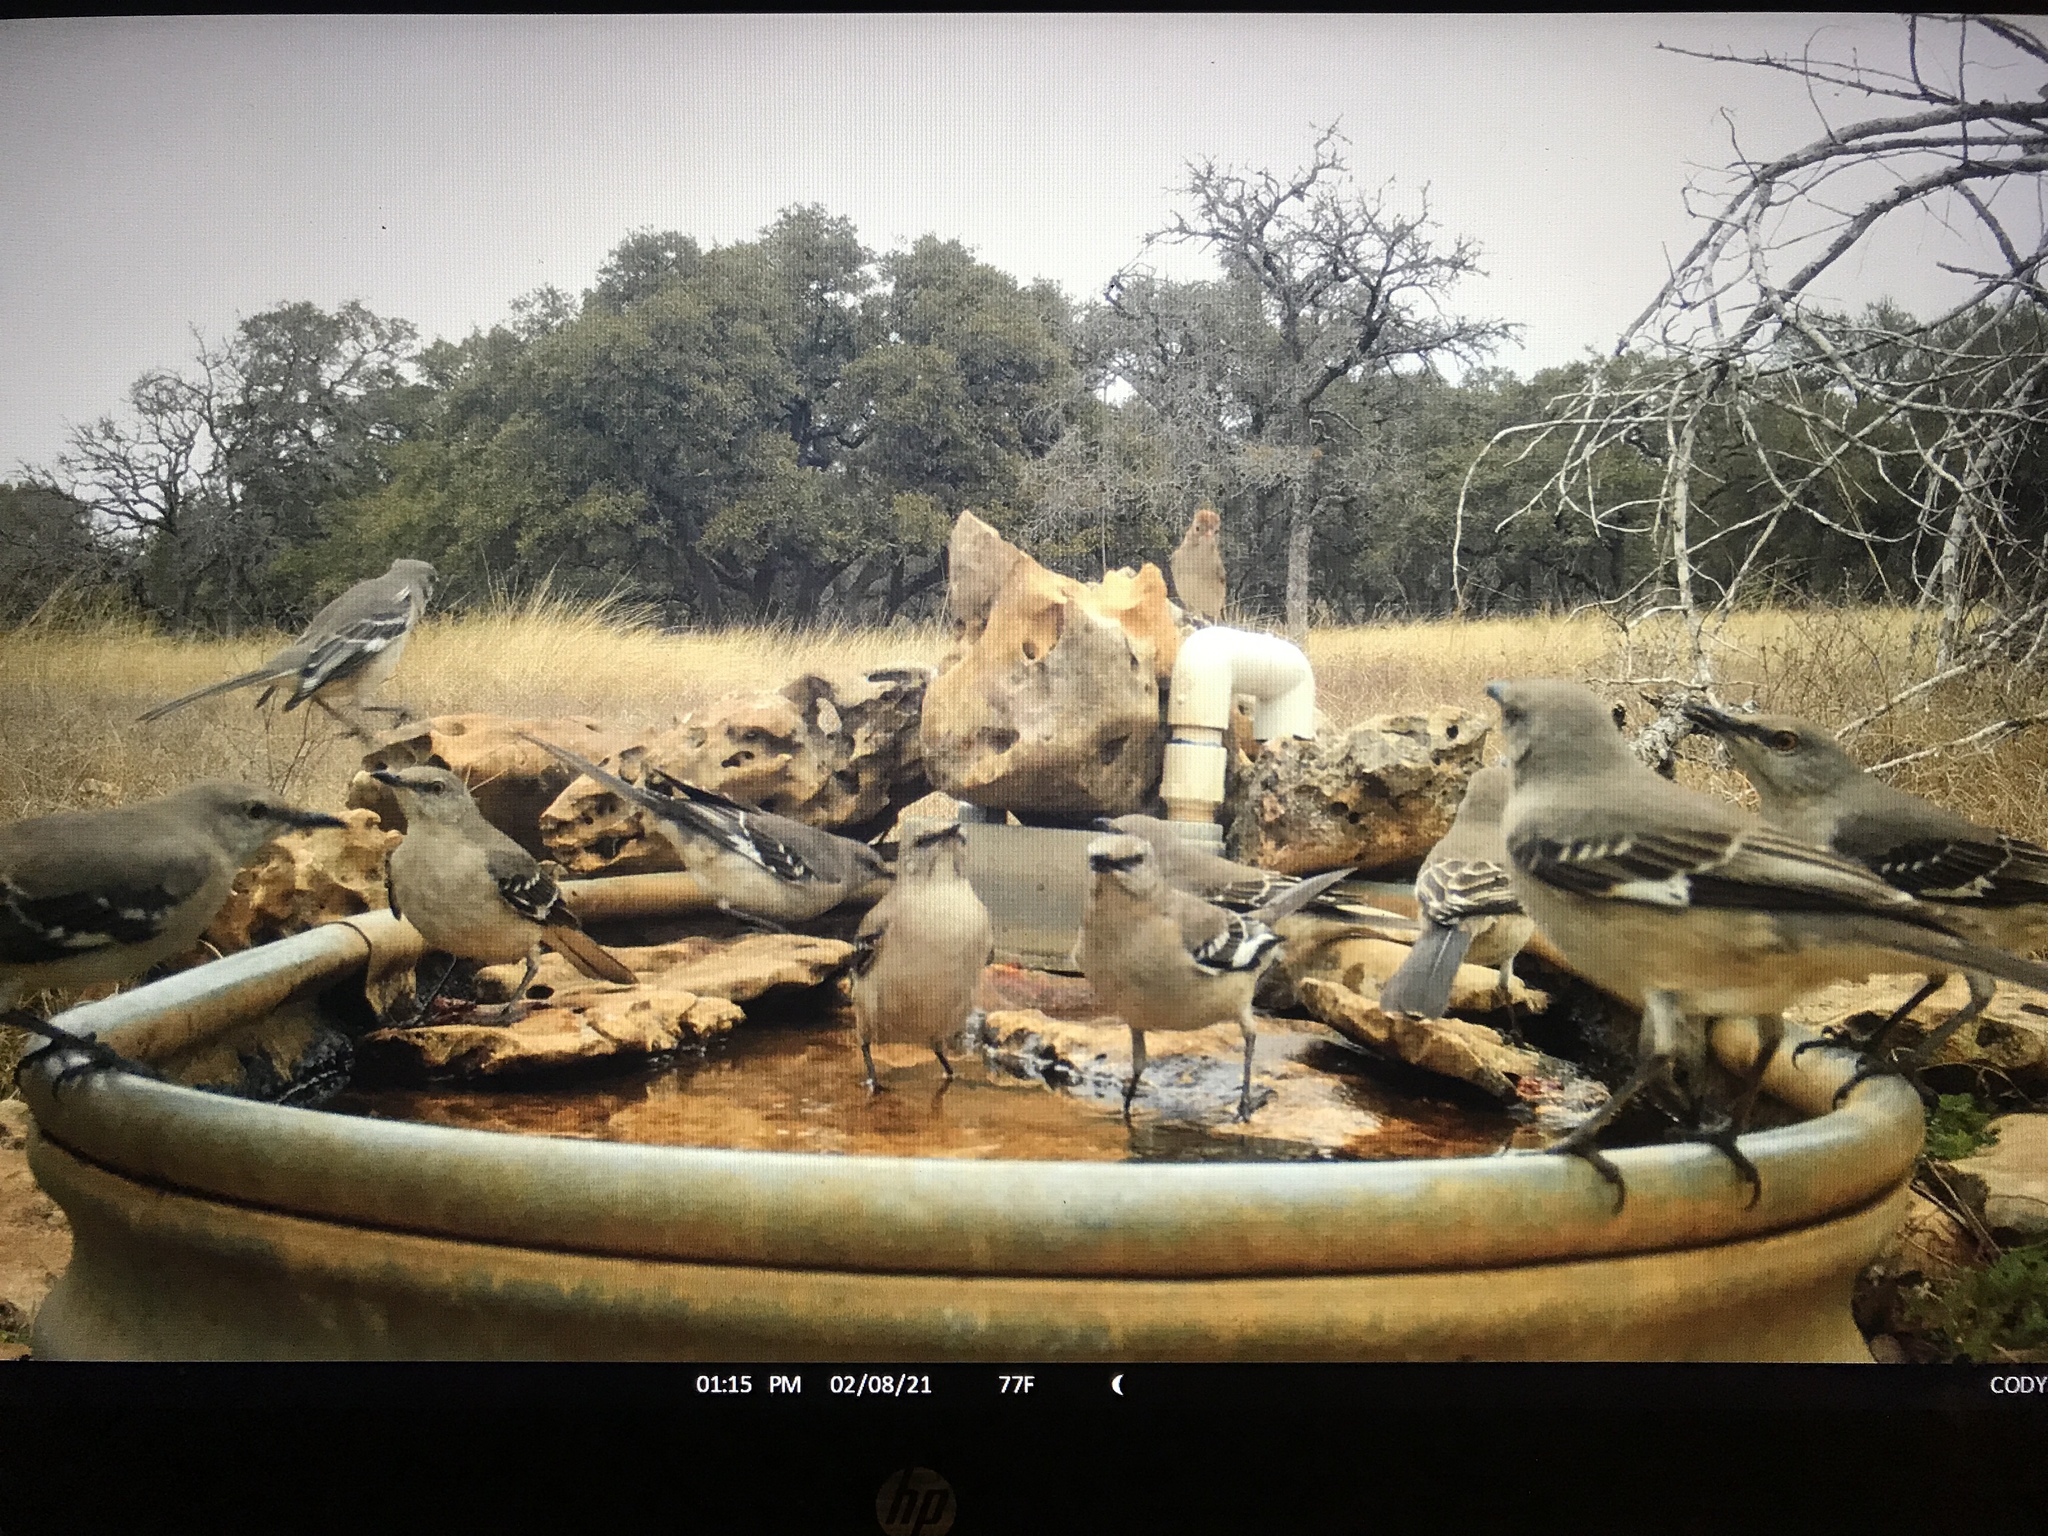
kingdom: Animalia
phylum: Chordata
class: Aves
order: Passeriformes
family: Mimidae
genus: Mimus
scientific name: Mimus polyglottos
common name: Northern mockingbird
